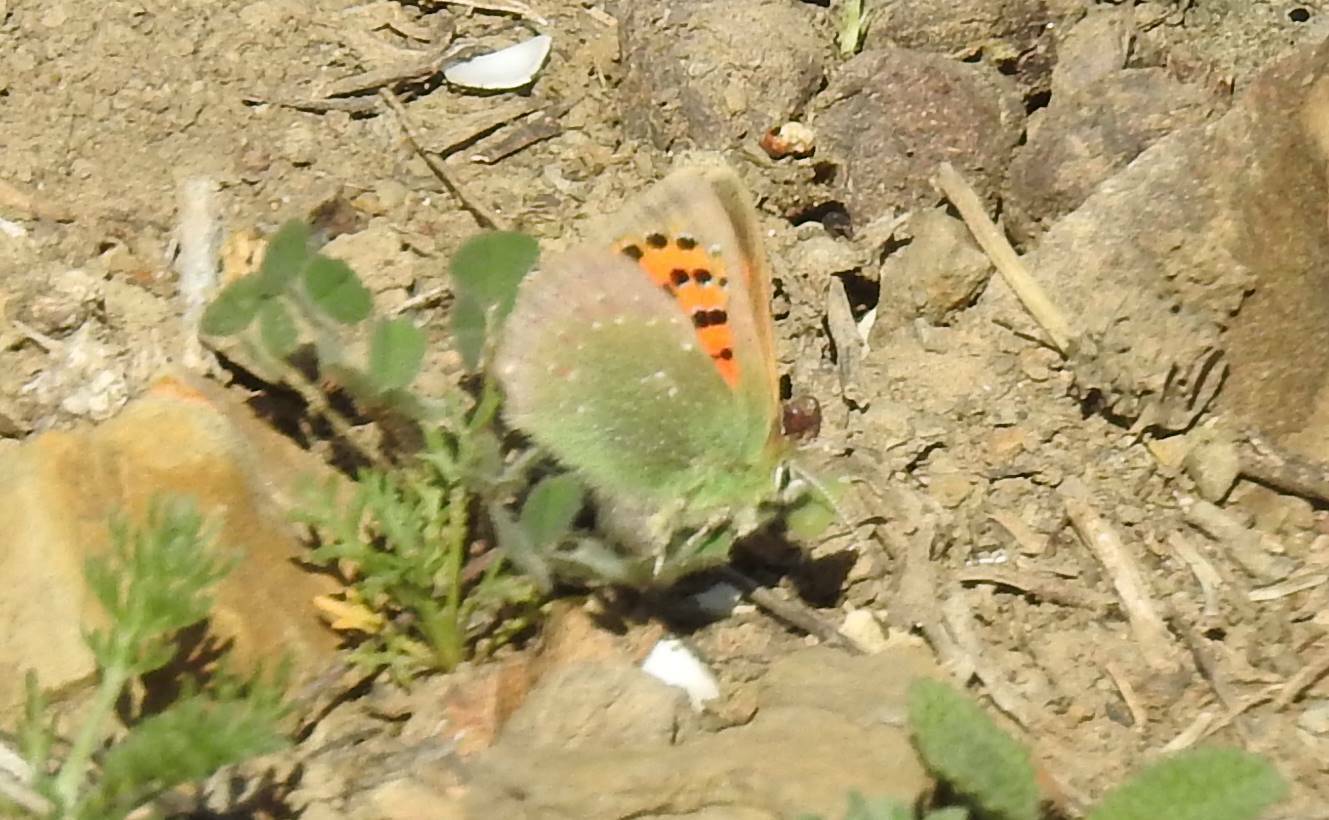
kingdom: Animalia
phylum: Arthropoda
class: Insecta
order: Lepidoptera
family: Lycaenidae
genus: Tomares
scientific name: Tomares ballus
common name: Provence hairstreak
